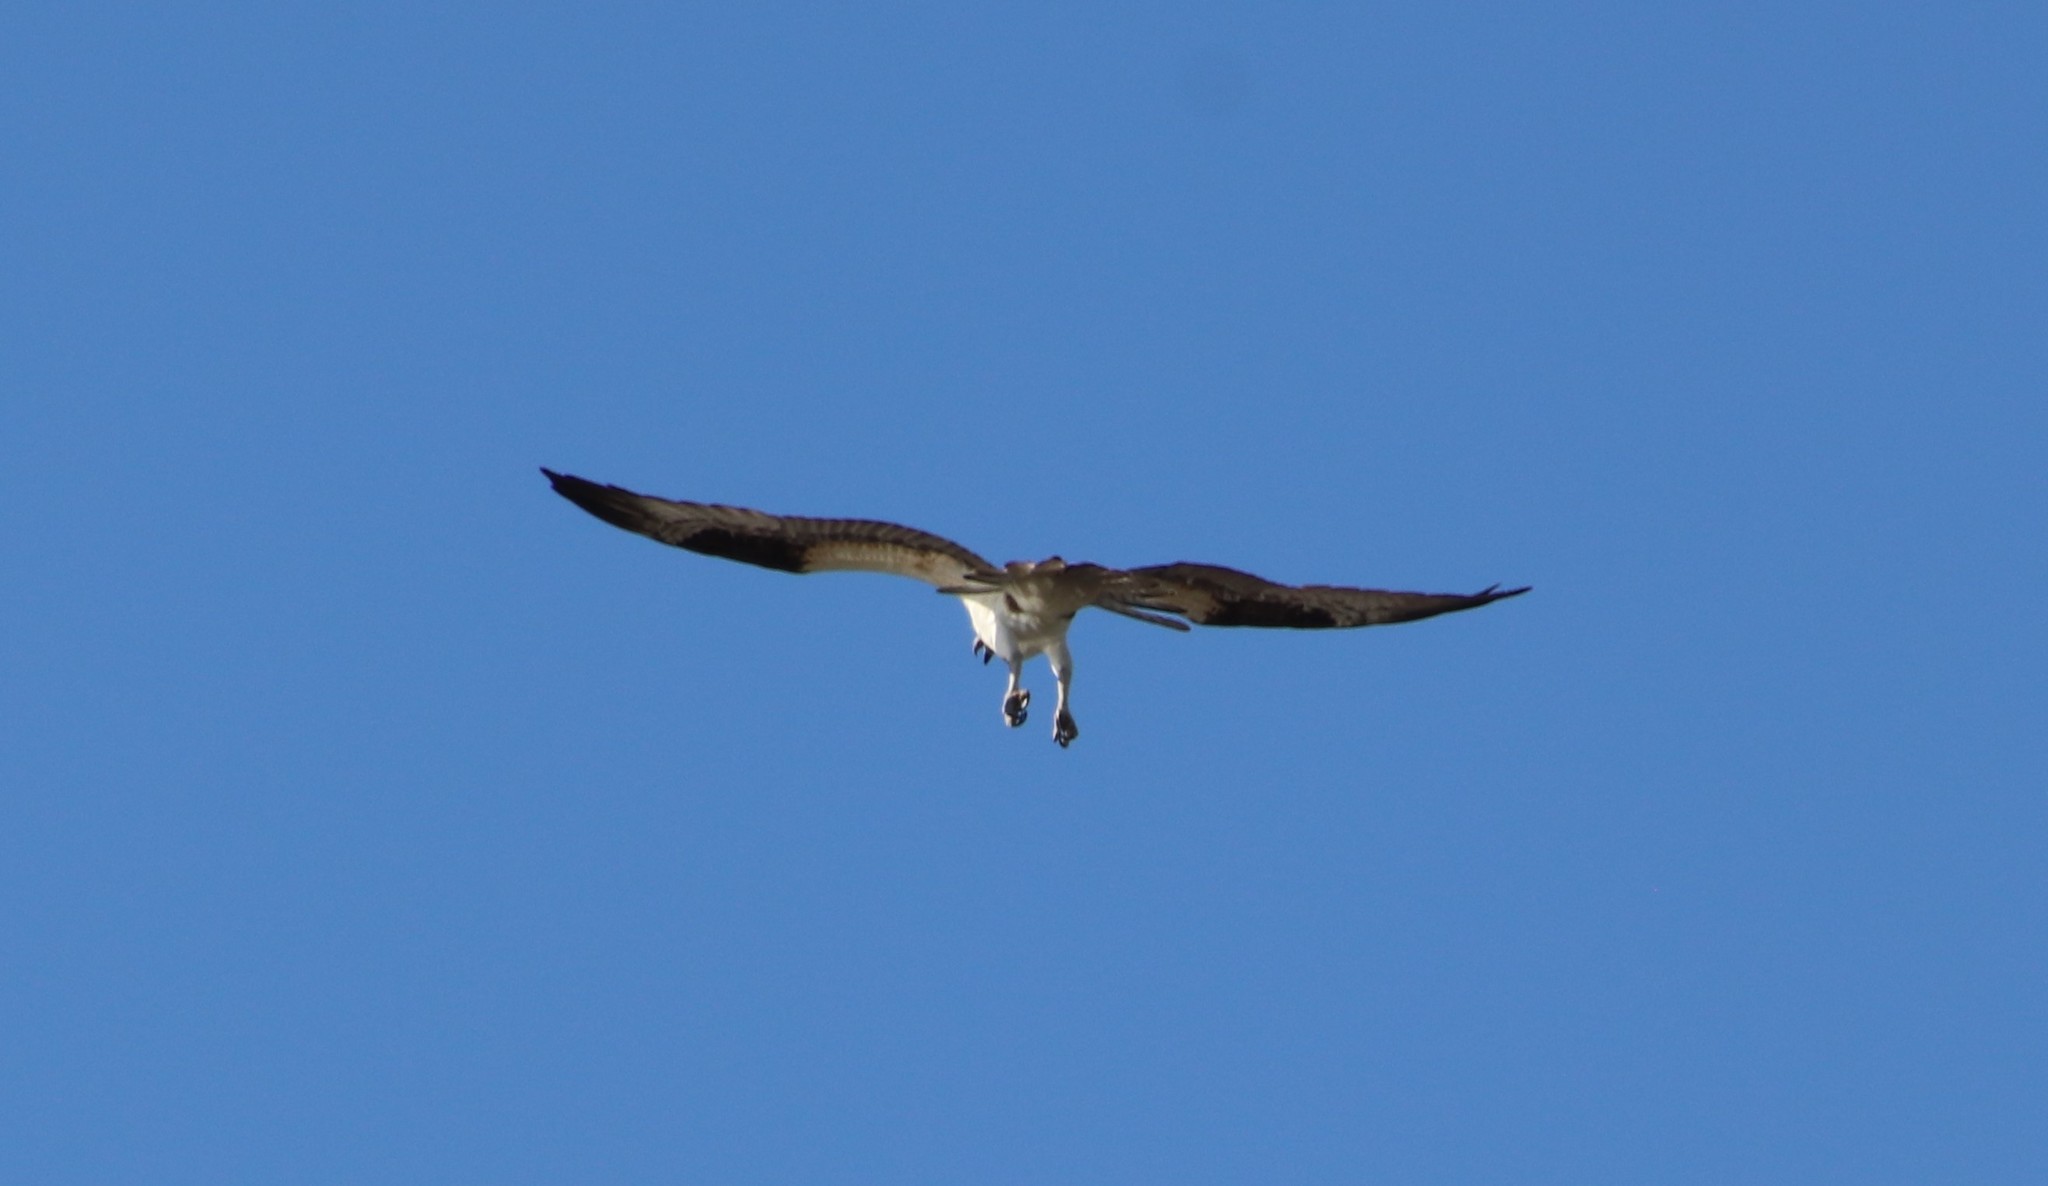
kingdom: Animalia
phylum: Chordata
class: Aves
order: Accipitriformes
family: Pandionidae
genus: Pandion
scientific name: Pandion haliaetus
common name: Osprey
